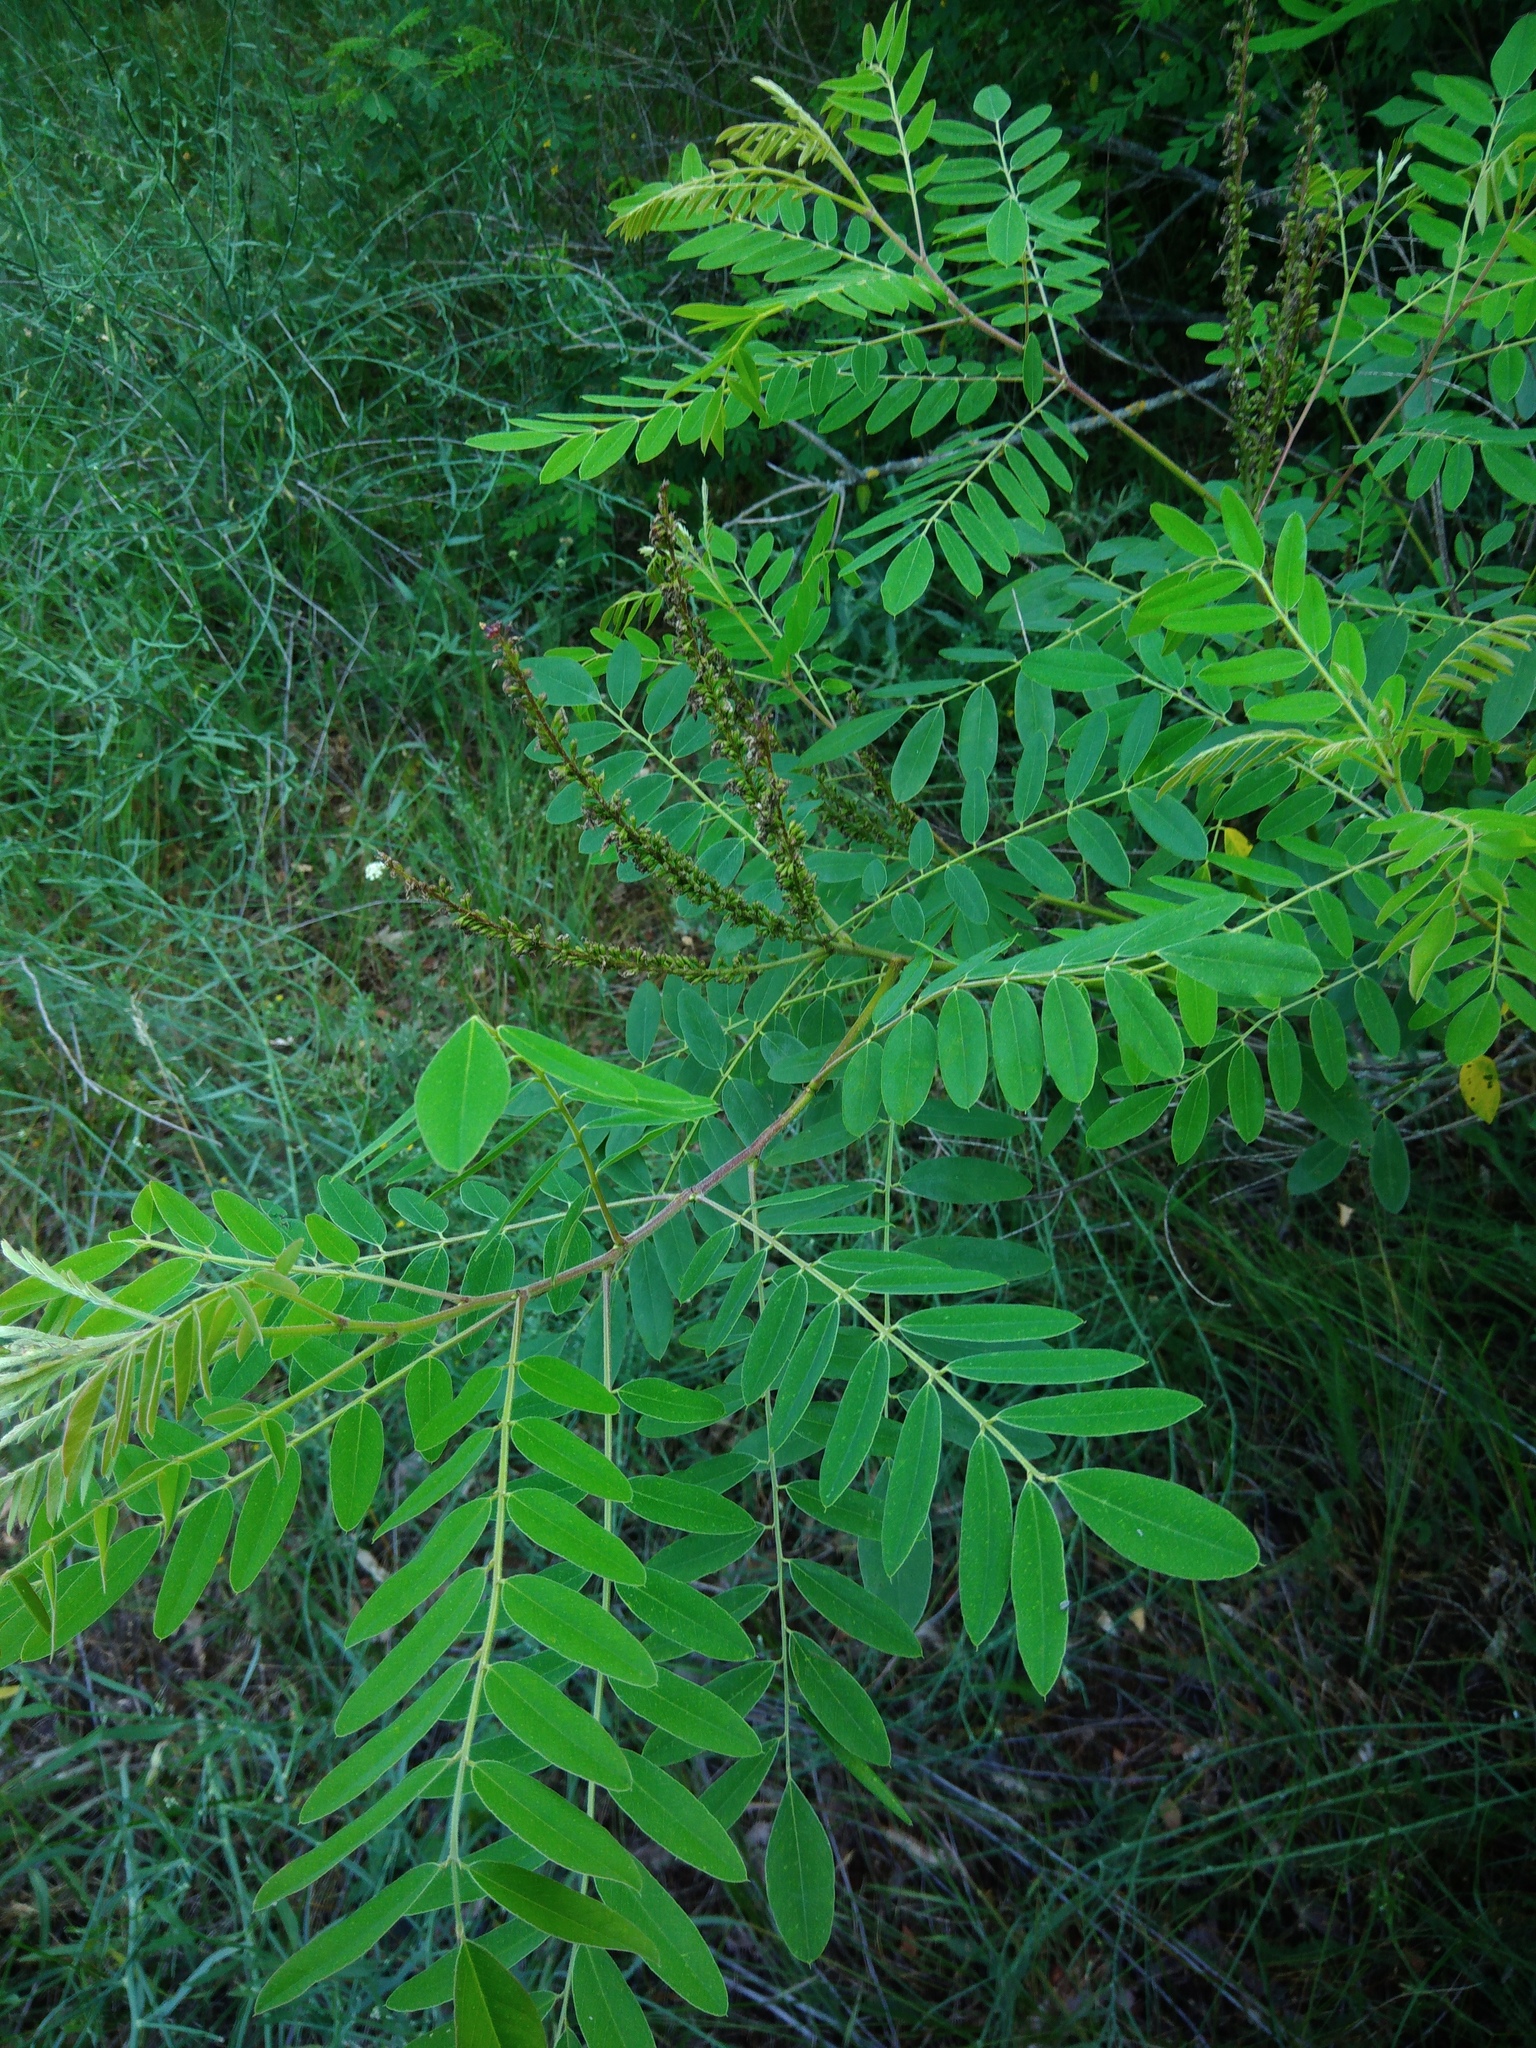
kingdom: Plantae
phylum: Tracheophyta
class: Magnoliopsida
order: Fabales
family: Fabaceae
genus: Amorpha
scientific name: Amorpha fruticosa
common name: False indigo
